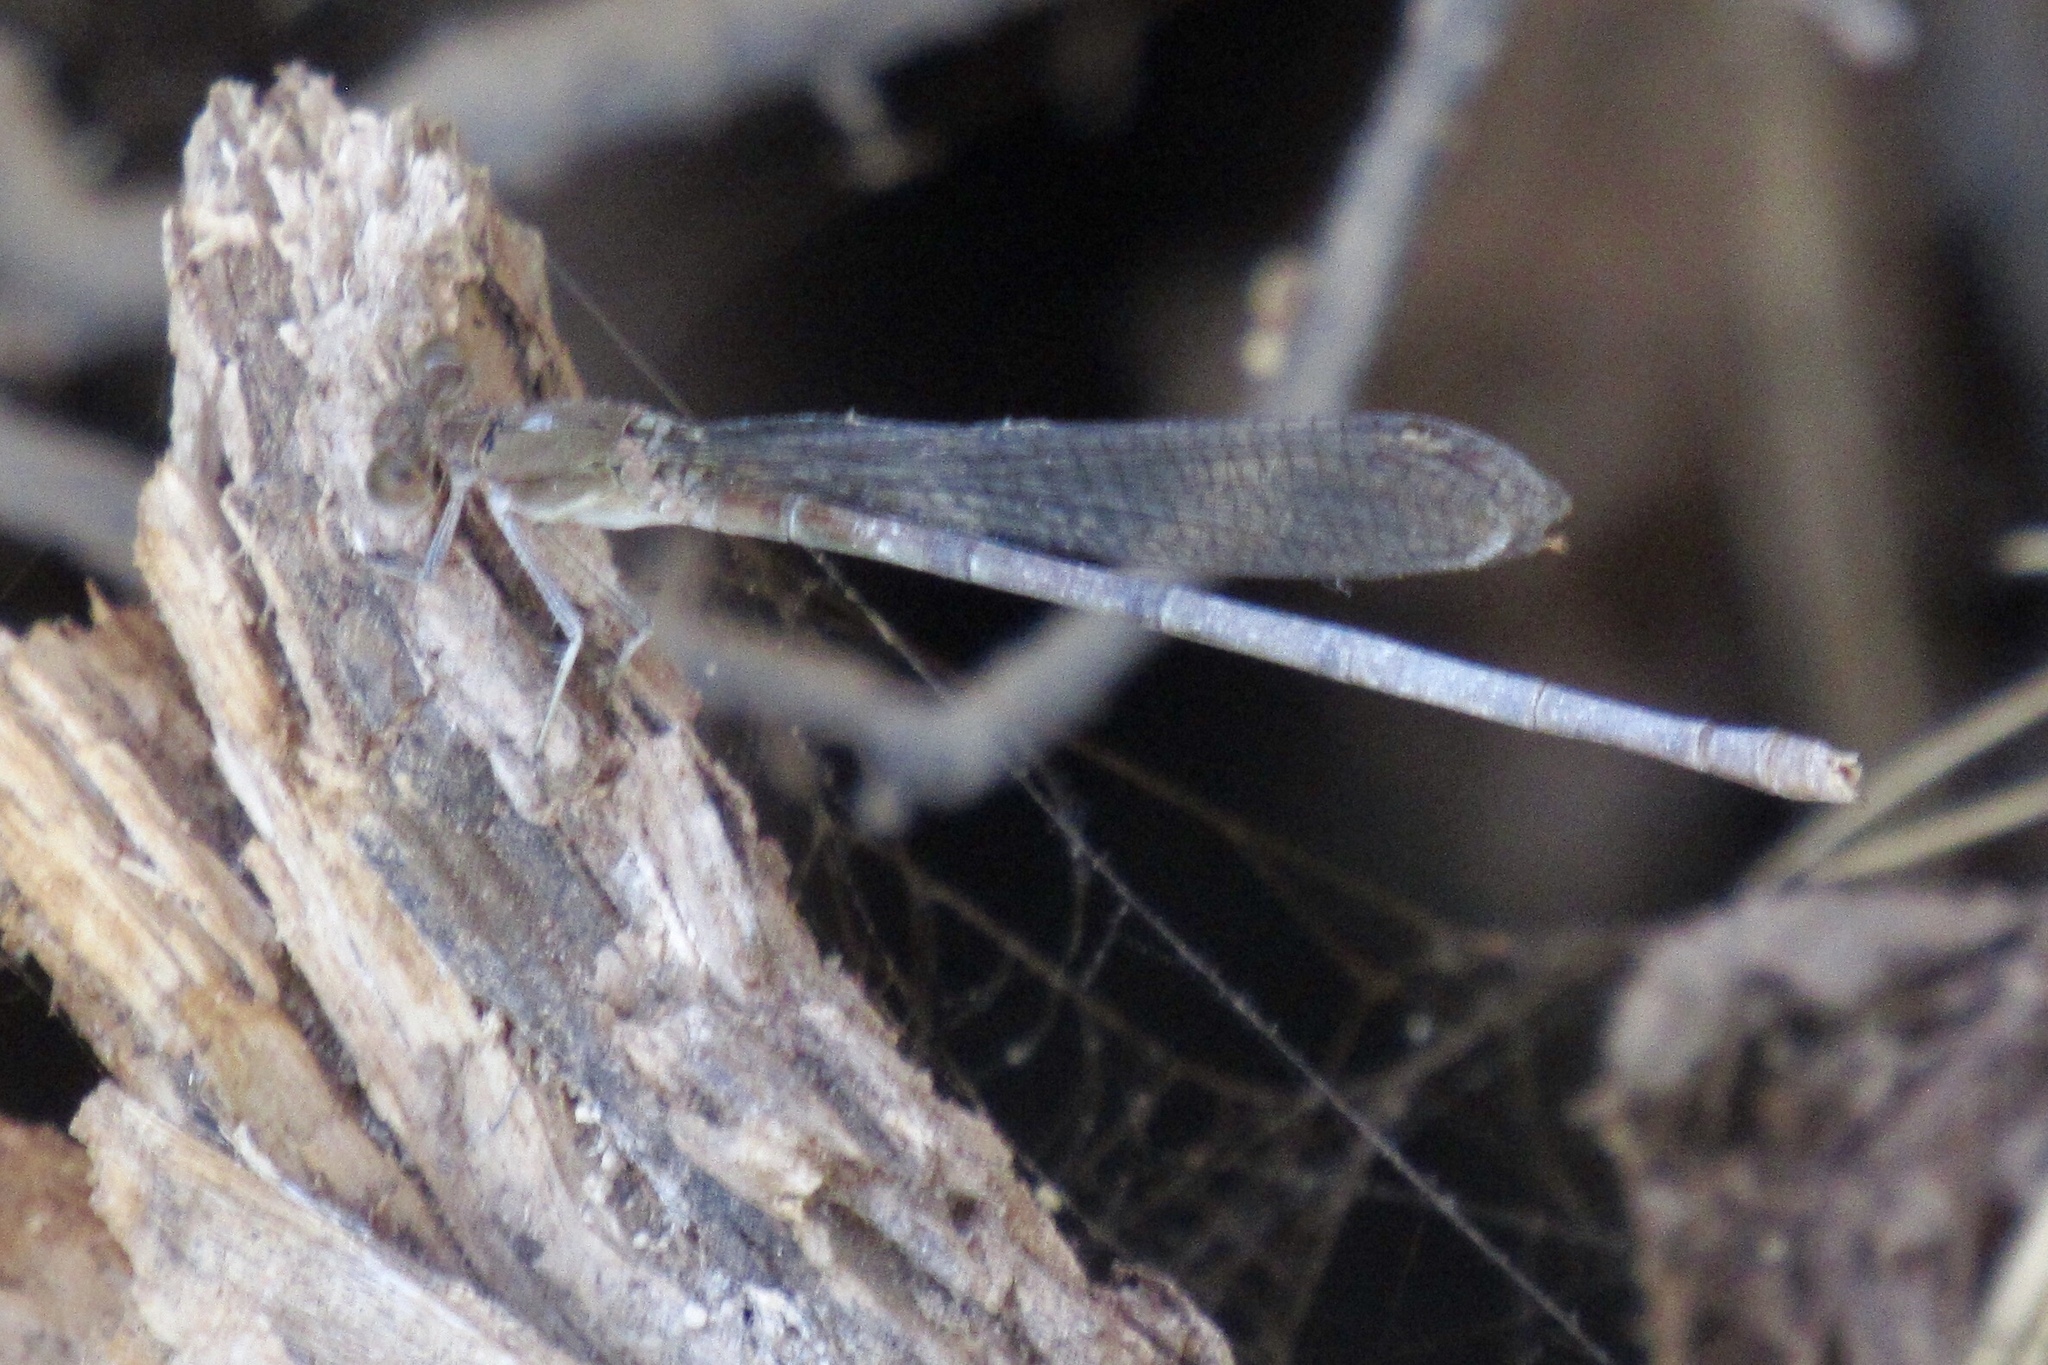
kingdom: Animalia
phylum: Arthropoda
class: Insecta
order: Odonata
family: Coenagrionidae
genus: Argia
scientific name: Argia sedula
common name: Blue-ringed dancer
